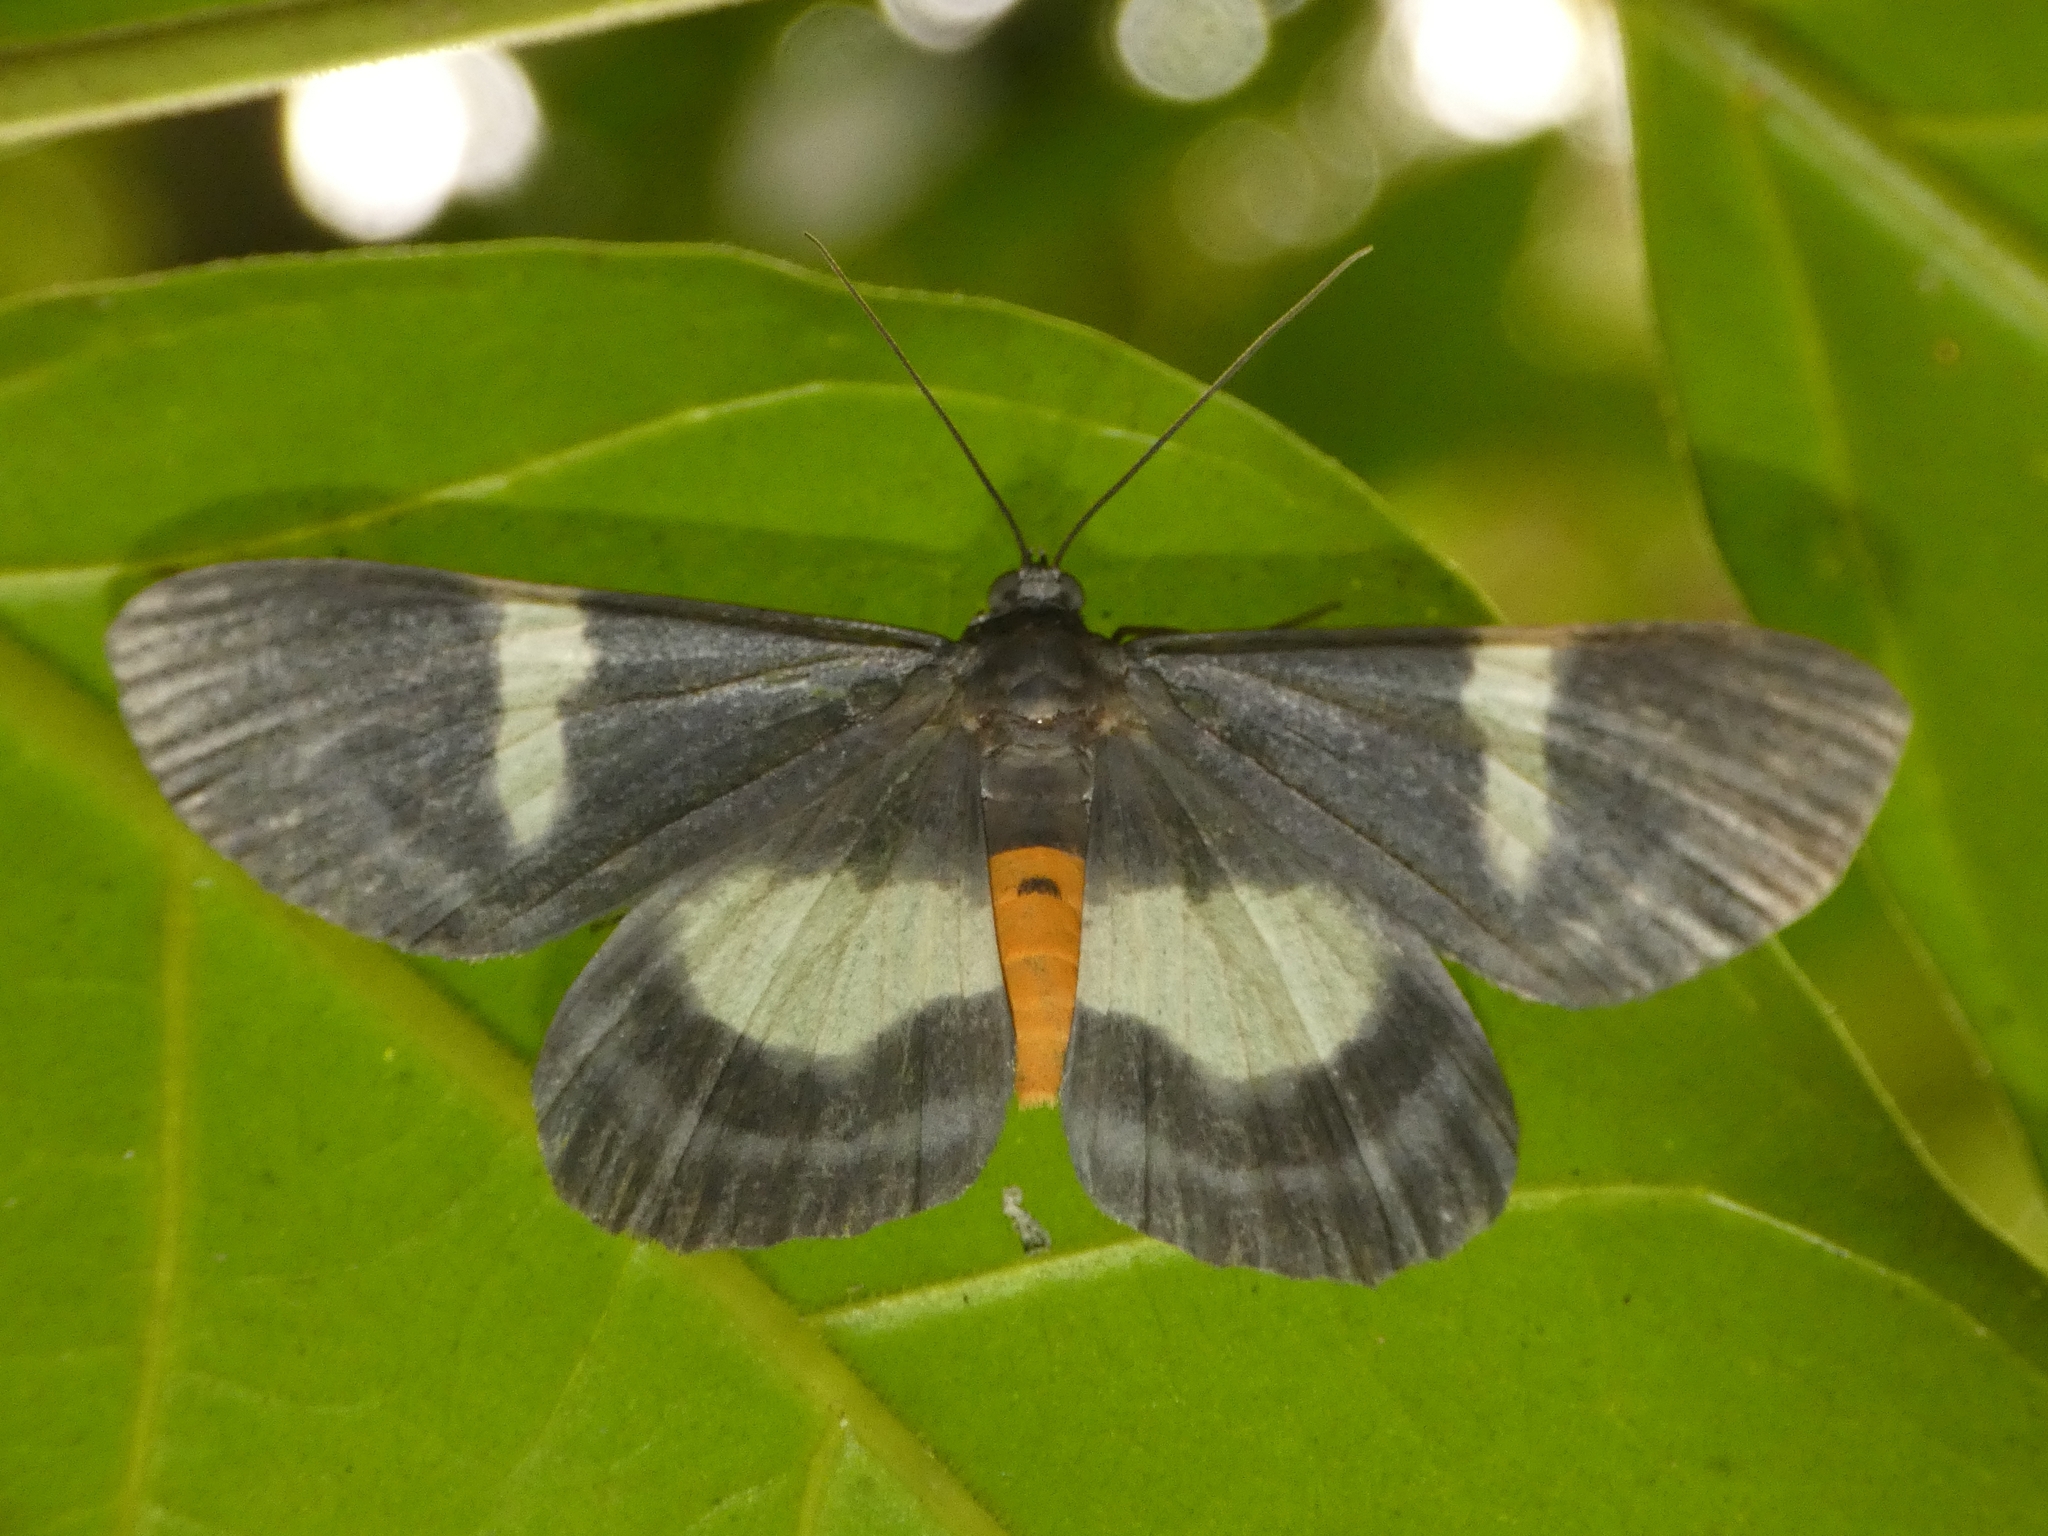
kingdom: Animalia
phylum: Arthropoda
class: Insecta
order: Lepidoptera
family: Geometridae
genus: Craspedosis
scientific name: Craspedosis leucosticta
